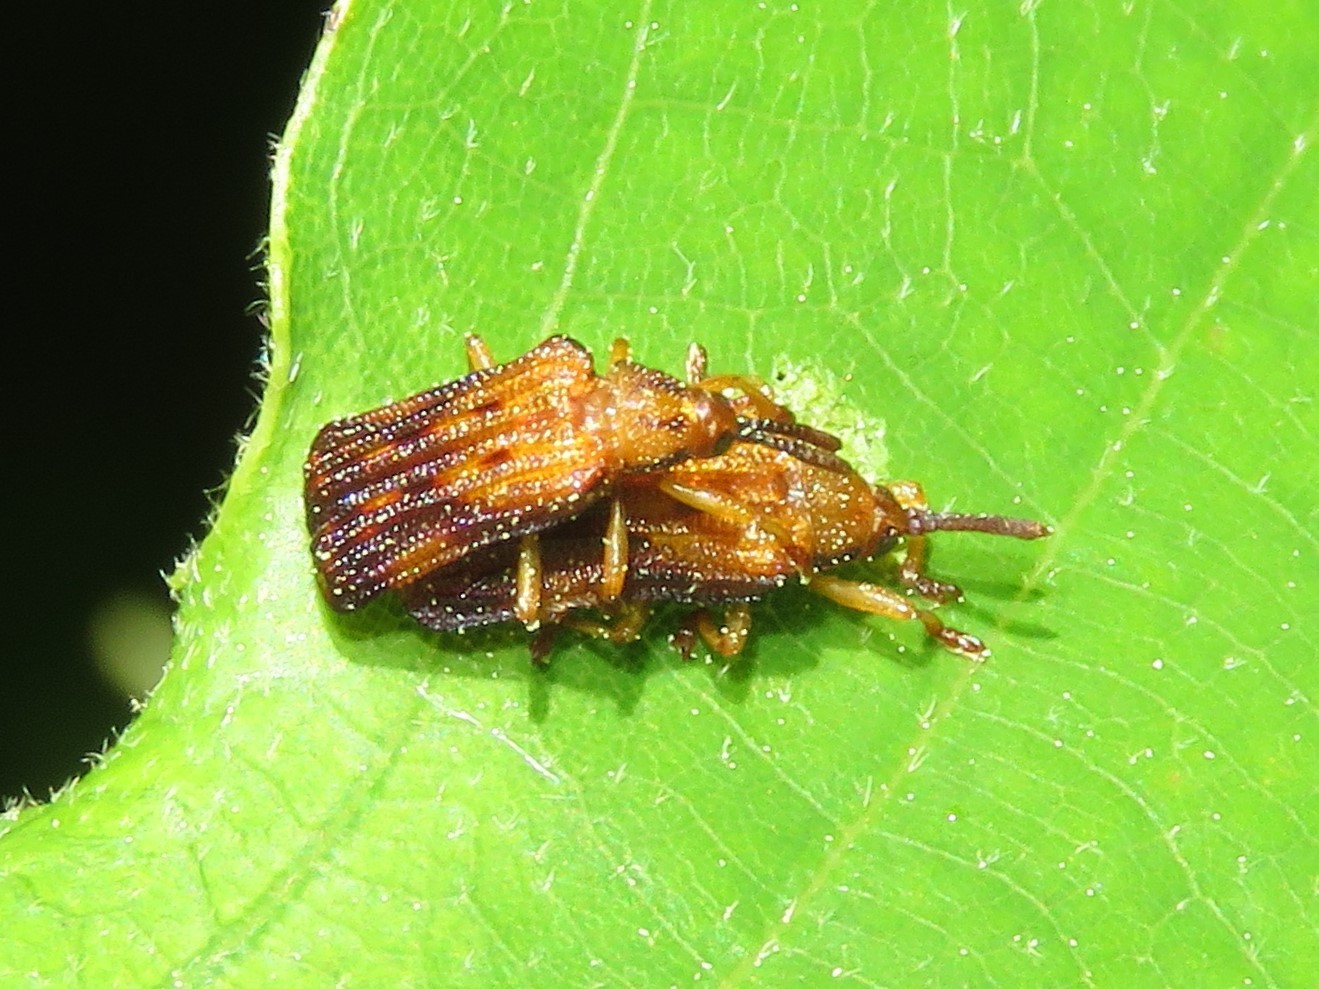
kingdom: Animalia
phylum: Arthropoda
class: Insecta
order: Coleoptera
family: Chrysomelidae
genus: Baliosus
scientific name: Baliosus nervosus
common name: Basswood leaf miner
